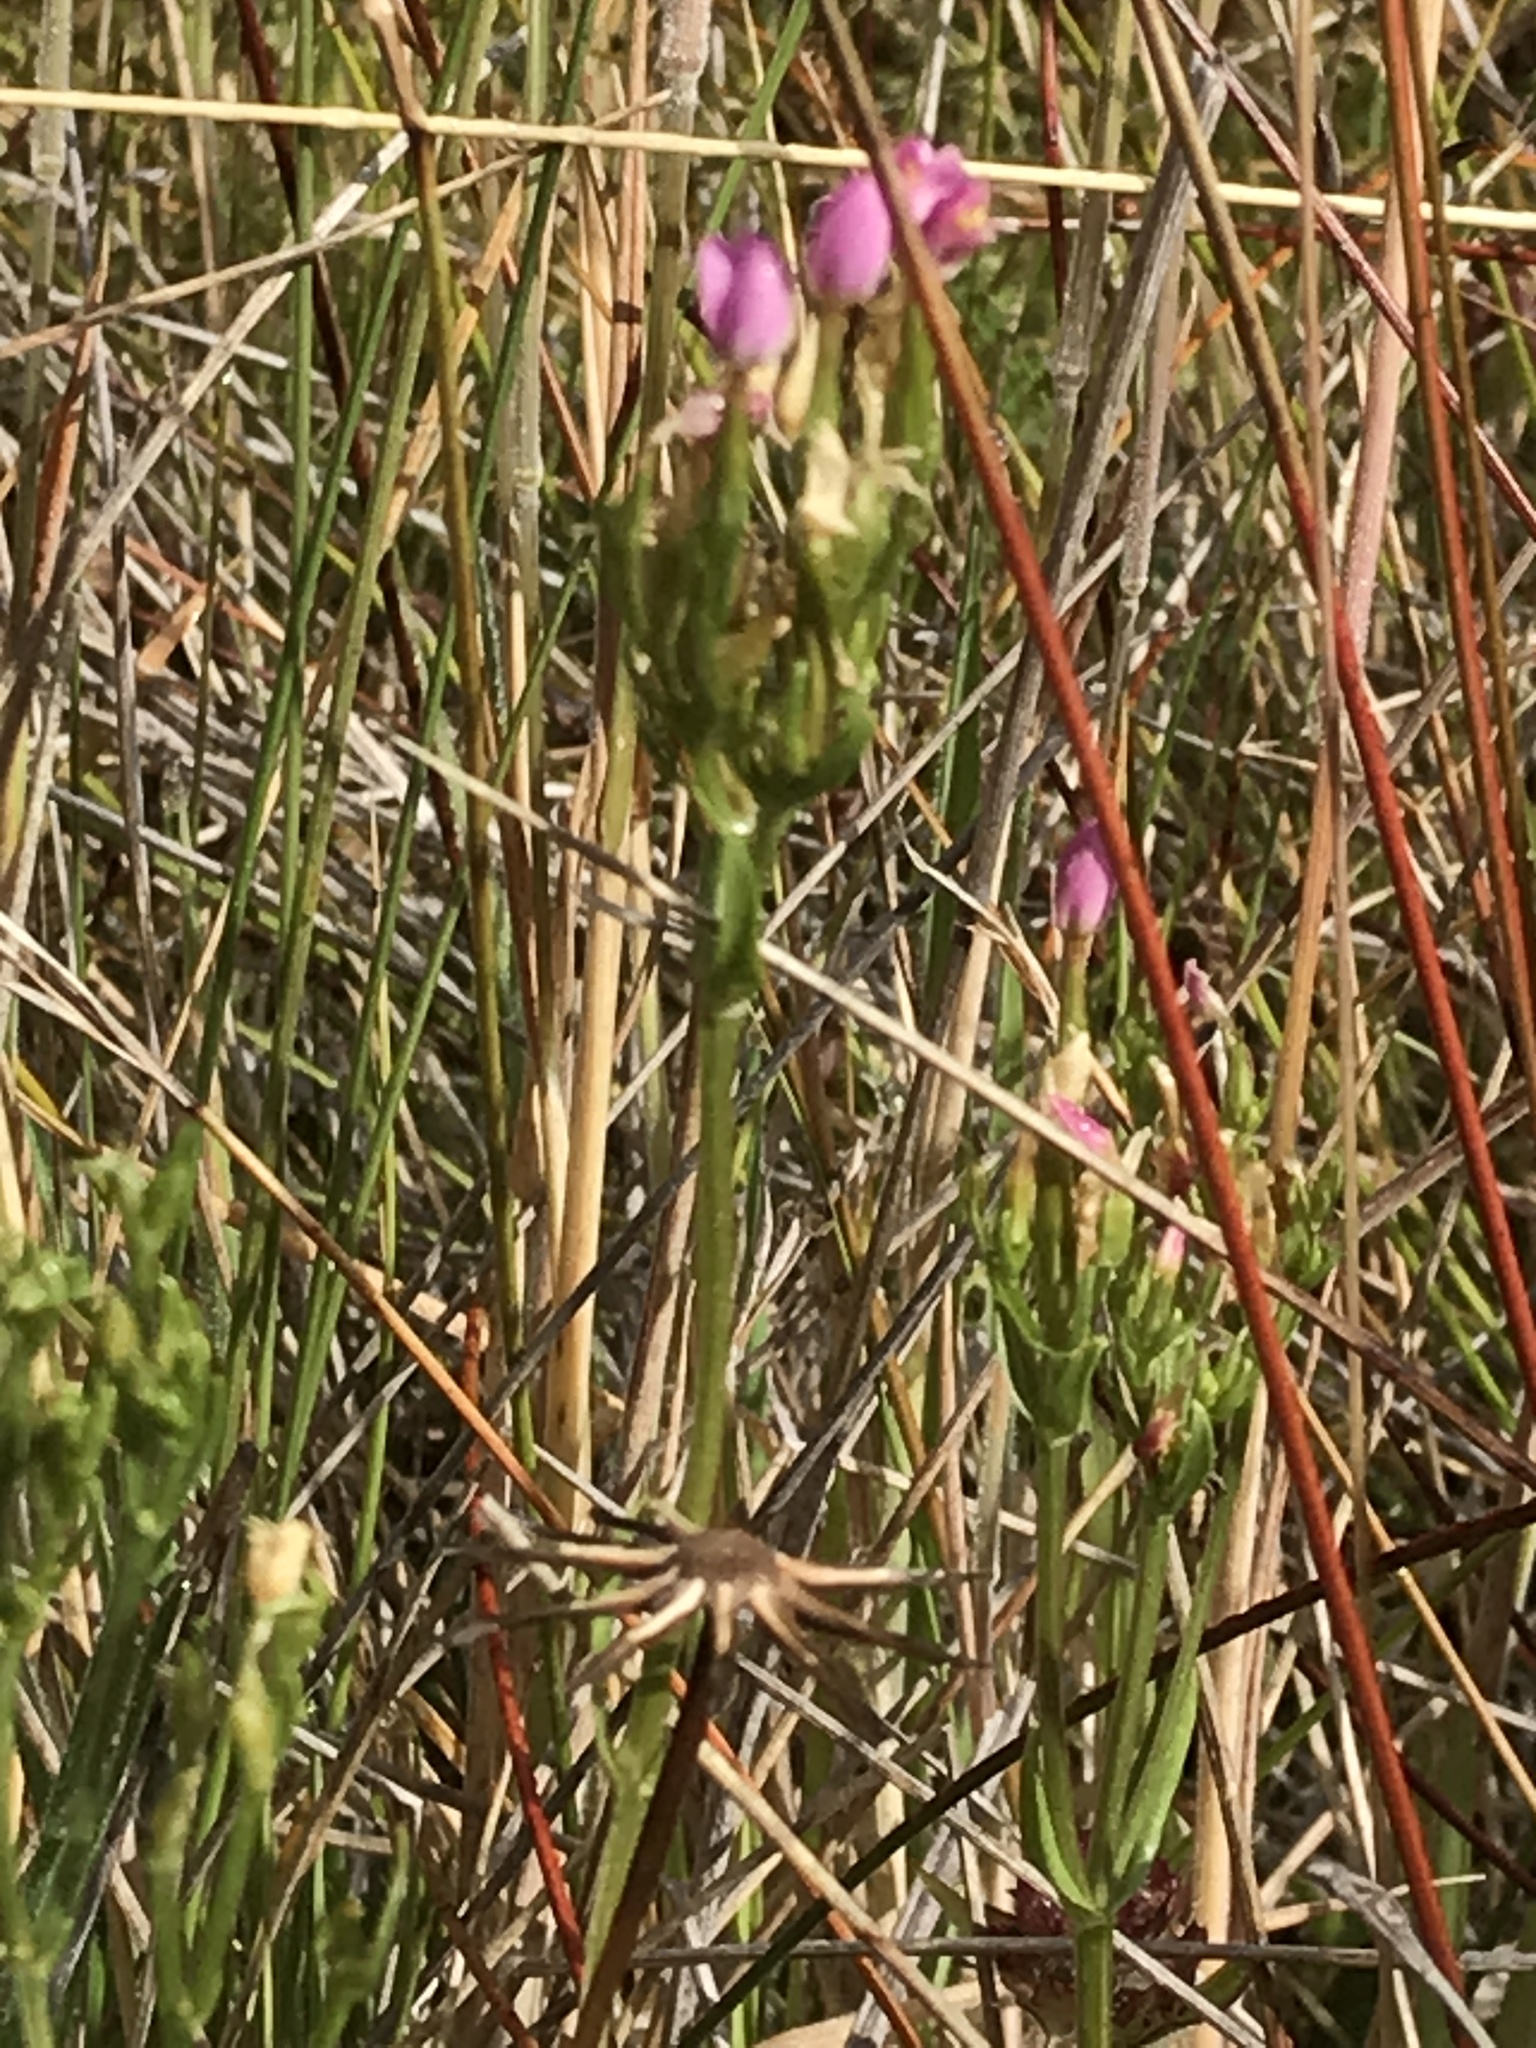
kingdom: Plantae
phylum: Tracheophyta
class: Magnoliopsida
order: Gentianales
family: Gentianaceae
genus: Centaurium
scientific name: Centaurium erythraea
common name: Common centaury
